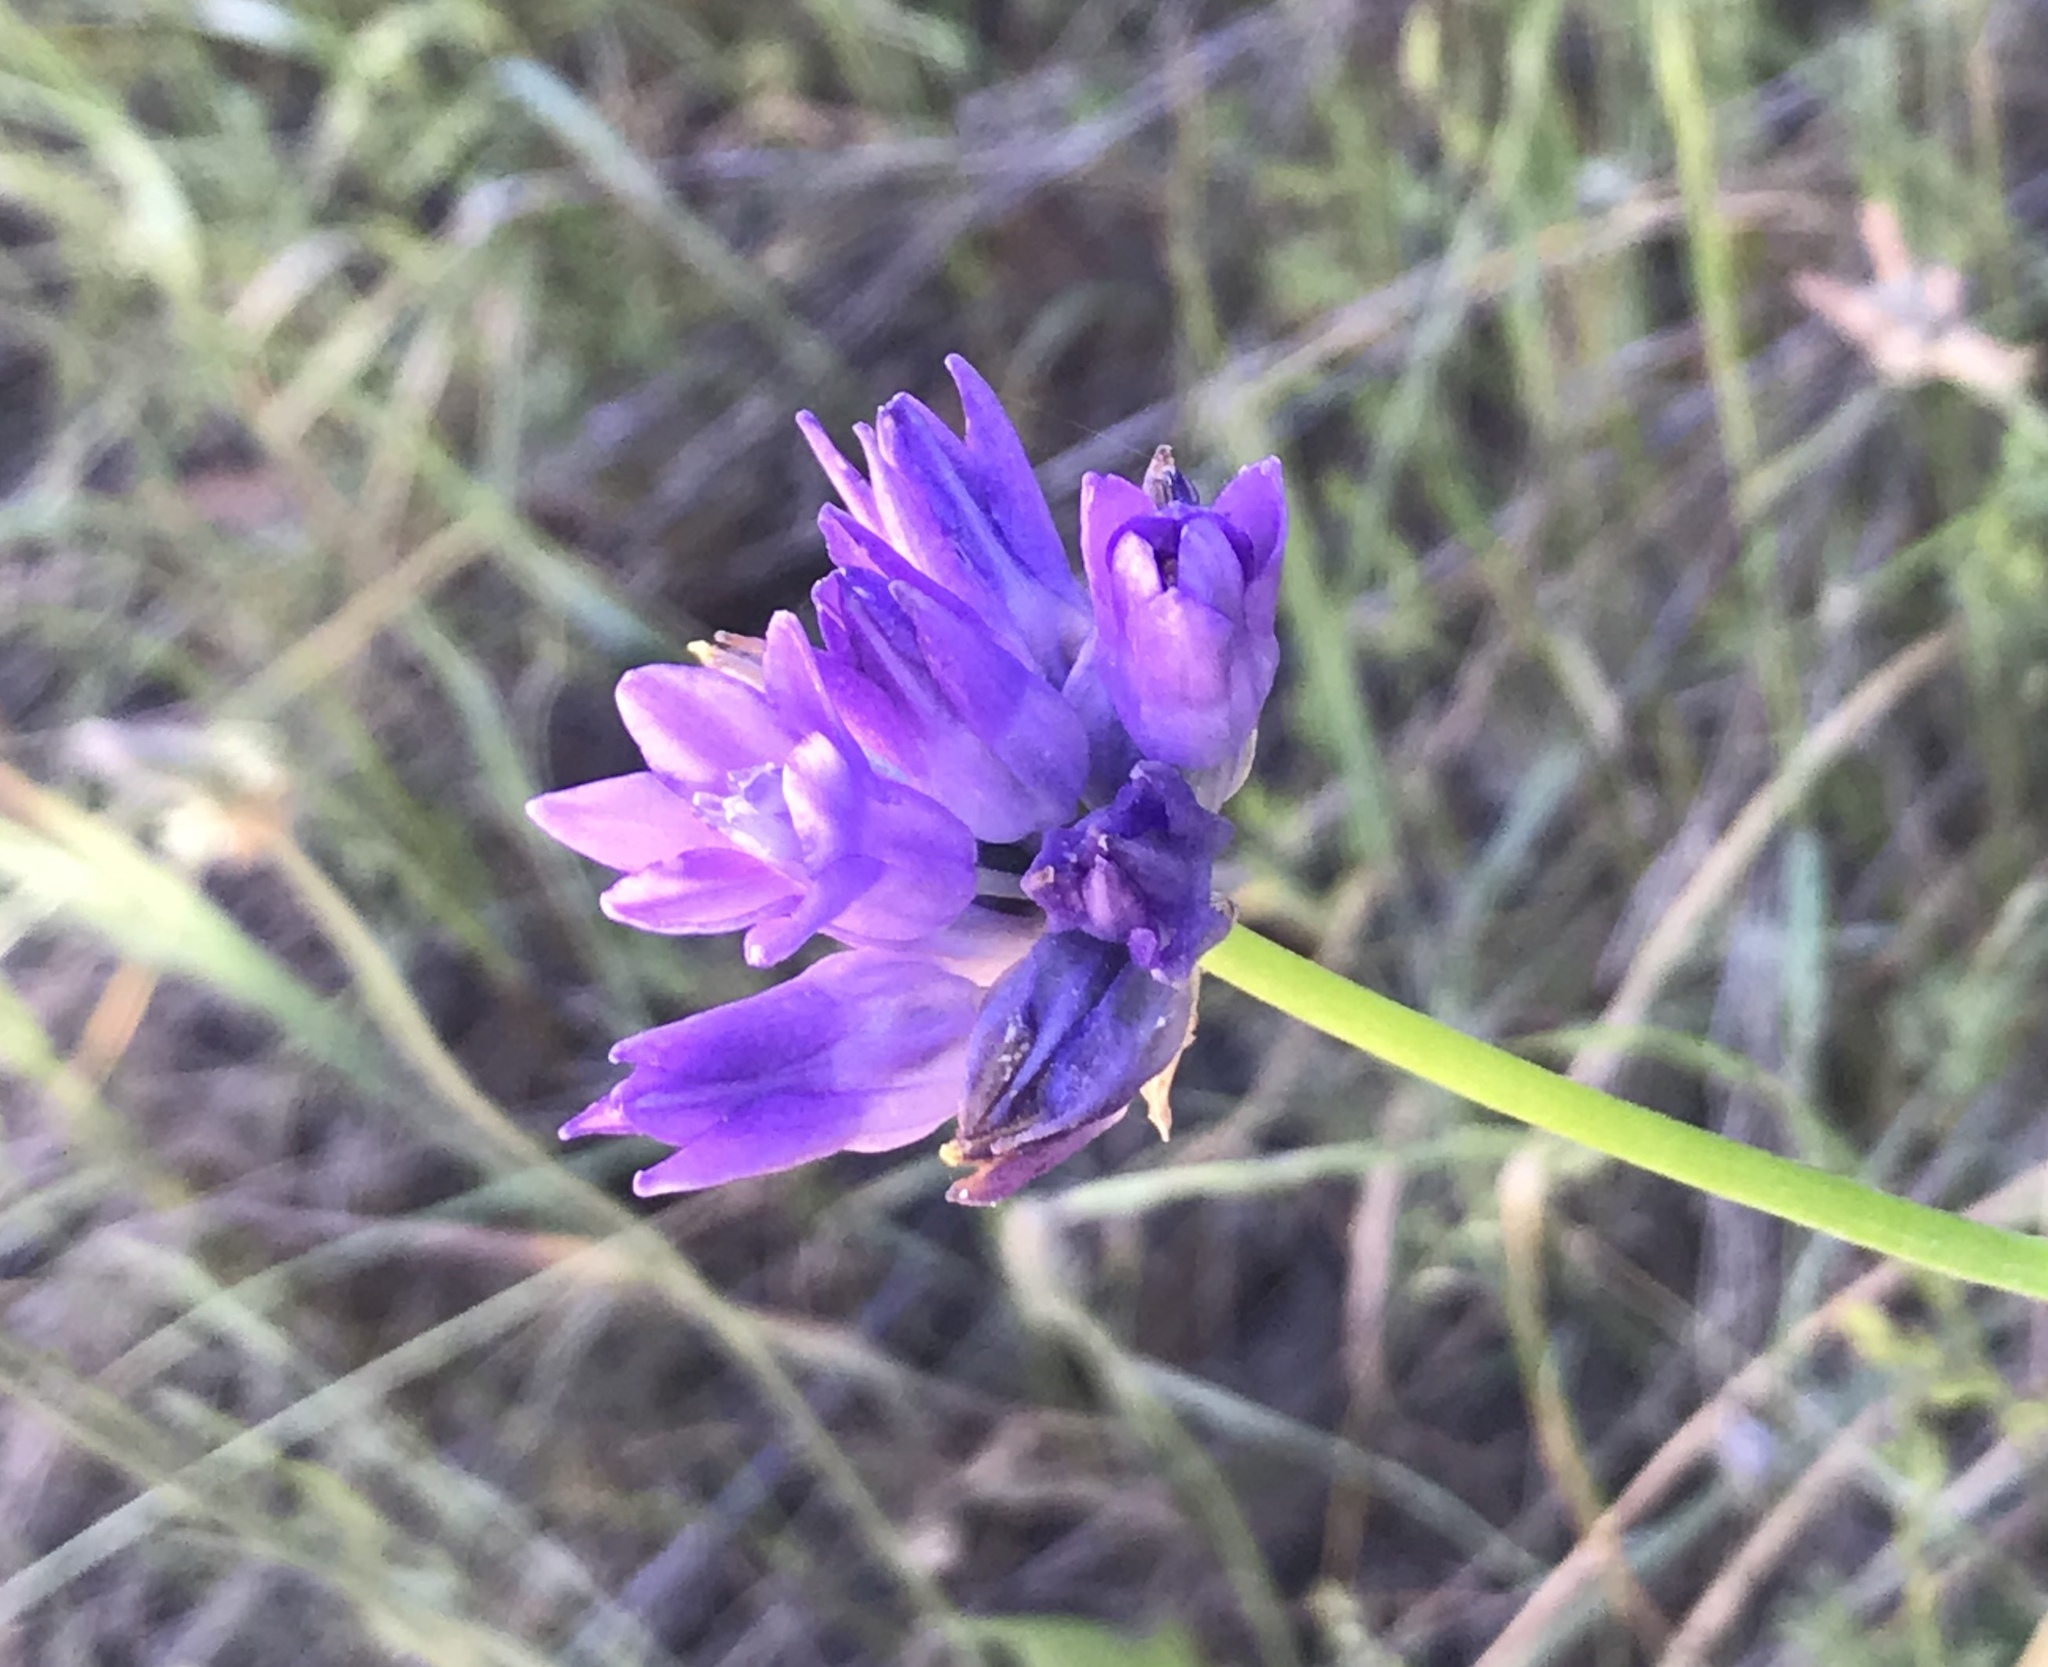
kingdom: Plantae
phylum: Tracheophyta
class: Liliopsida
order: Asparagales
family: Asparagaceae
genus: Dipterostemon
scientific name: Dipterostemon capitatus
